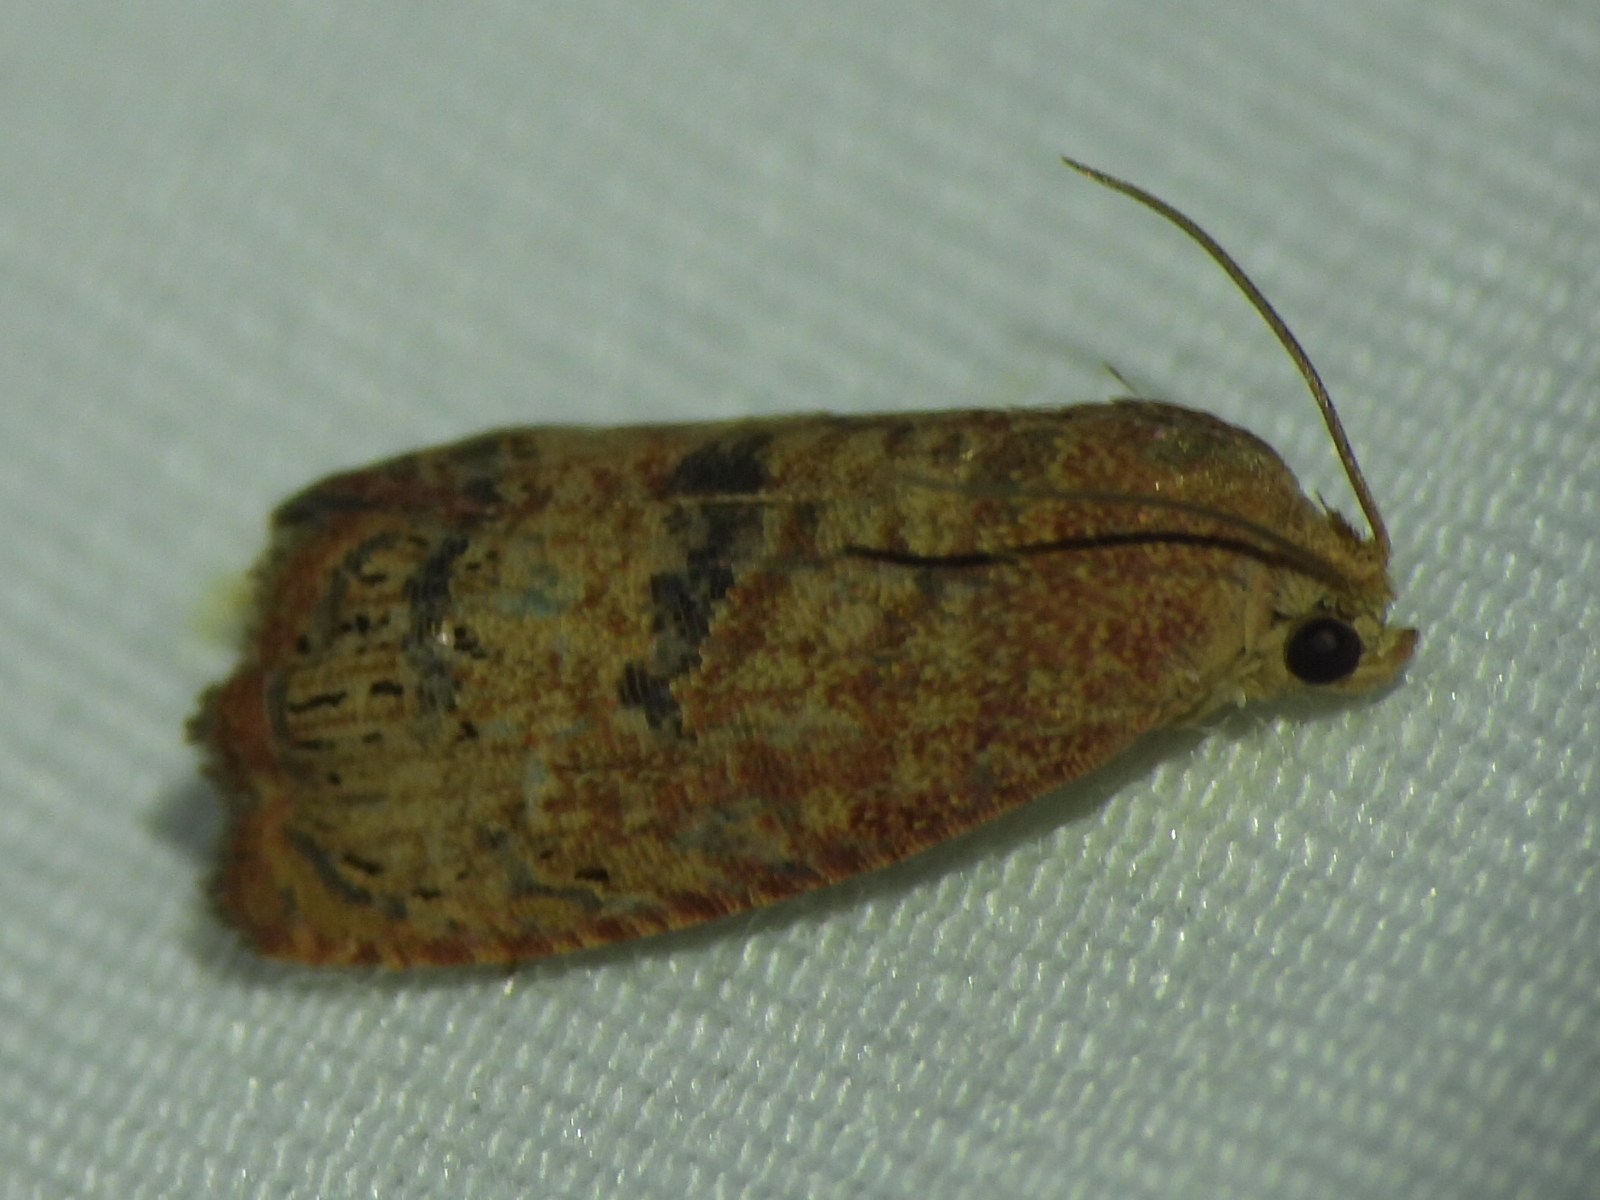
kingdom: Animalia
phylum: Arthropoda
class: Insecta
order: Lepidoptera
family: Tortricidae
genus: Cydia
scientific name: Cydia latiferreana
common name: Filbertworm moth
